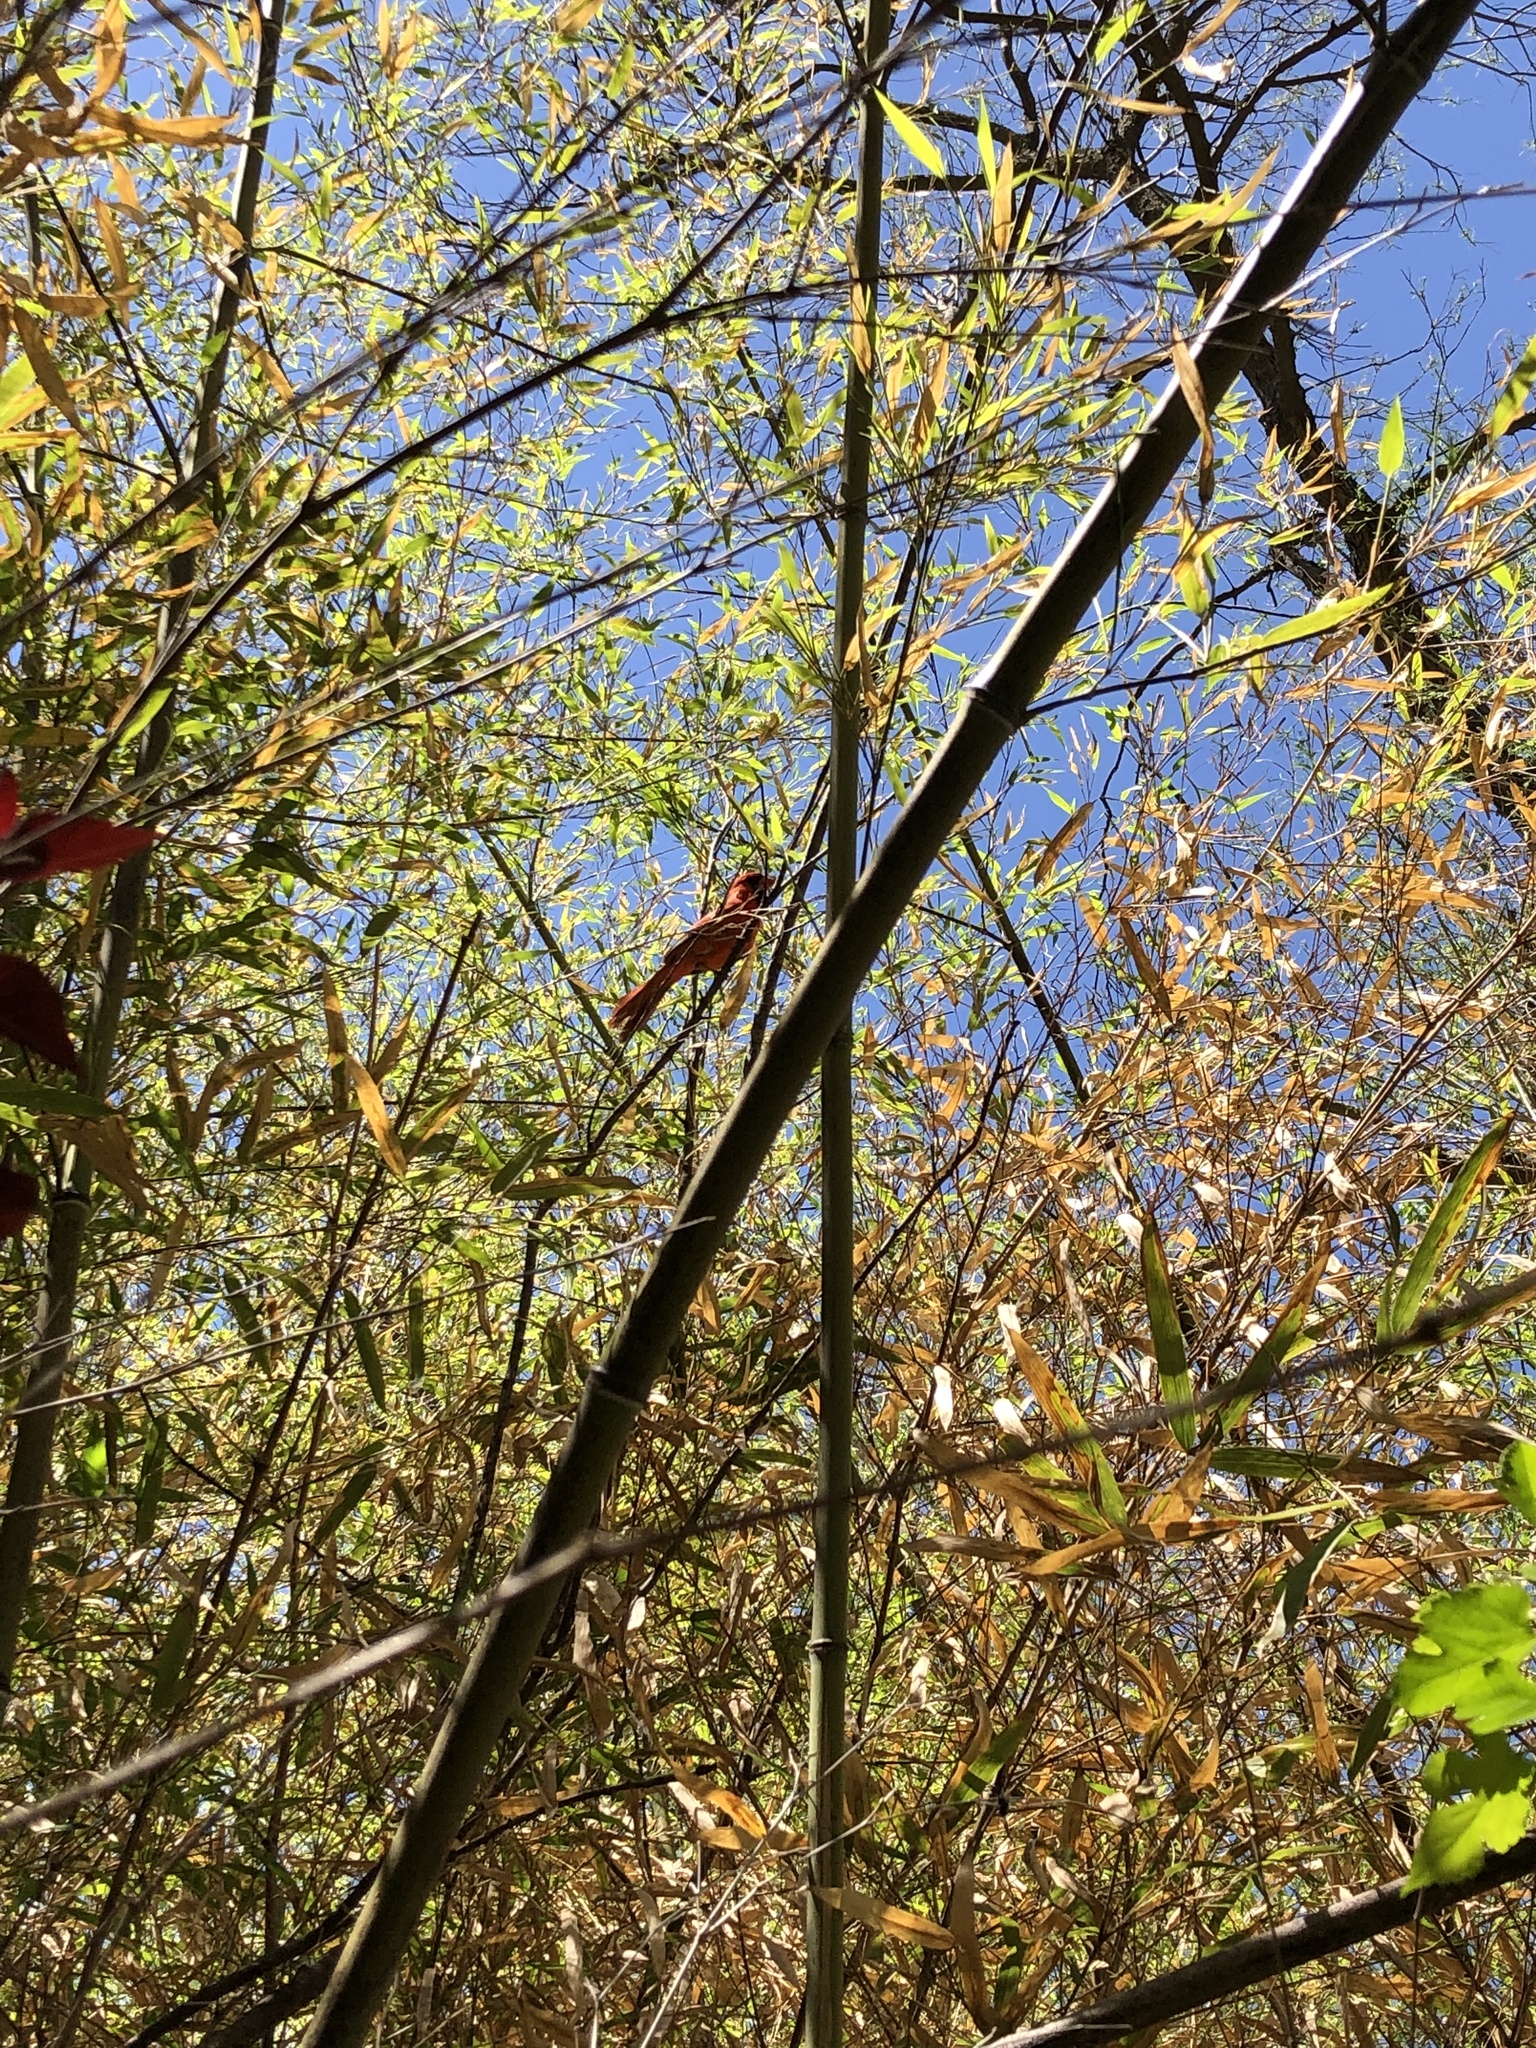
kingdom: Animalia
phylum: Chordata
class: Aves
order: Passeriformes
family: Cardinalidae
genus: Cardinalis
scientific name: Cardinalis cardinalis
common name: Northern cardinal
